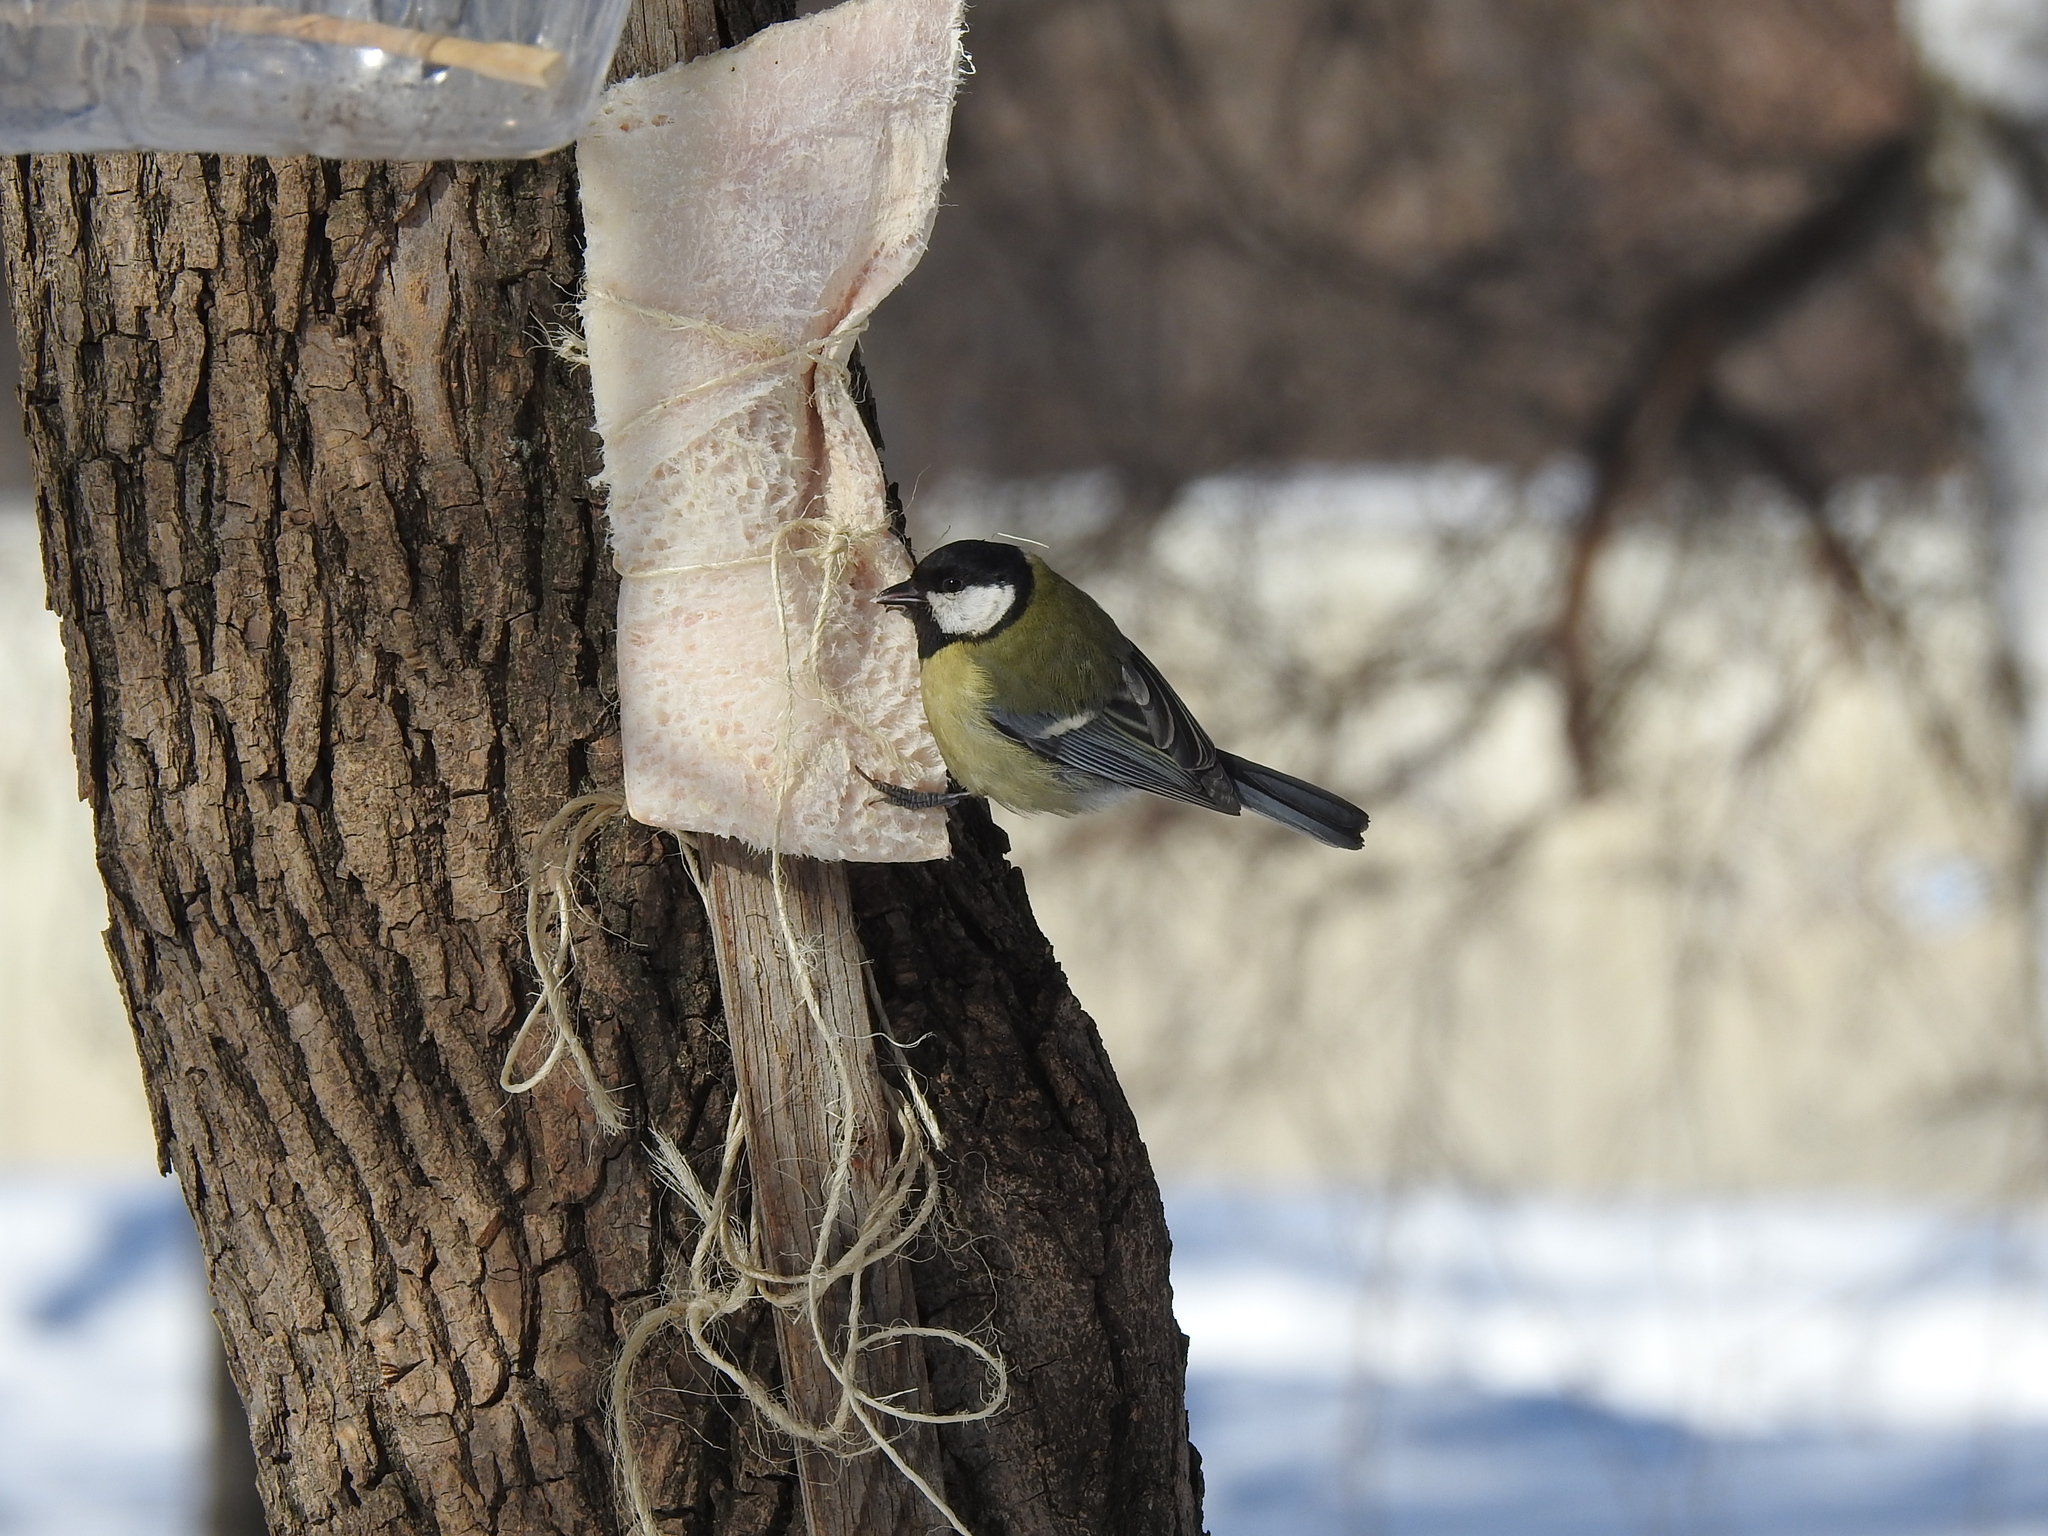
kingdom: Animalia
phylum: Chordata
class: Aves
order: Passeriformes
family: Paridae
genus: Parus
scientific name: Parus major
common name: Great tit
